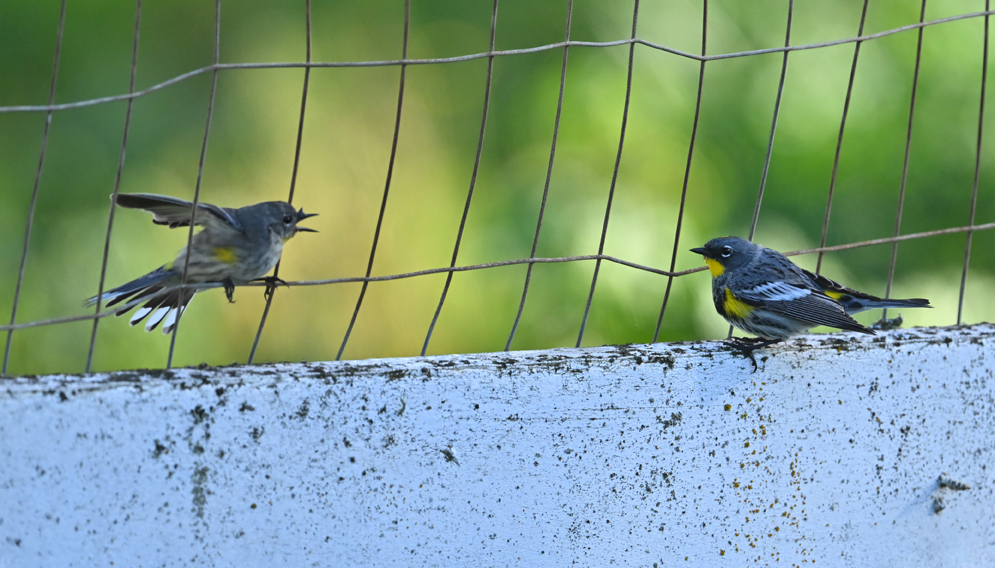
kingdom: Animalia
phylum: Chordata
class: Aves
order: Passeriformes
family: Parulidae
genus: Setophaga
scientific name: Setophaga coronata
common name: Myrtle warbler
